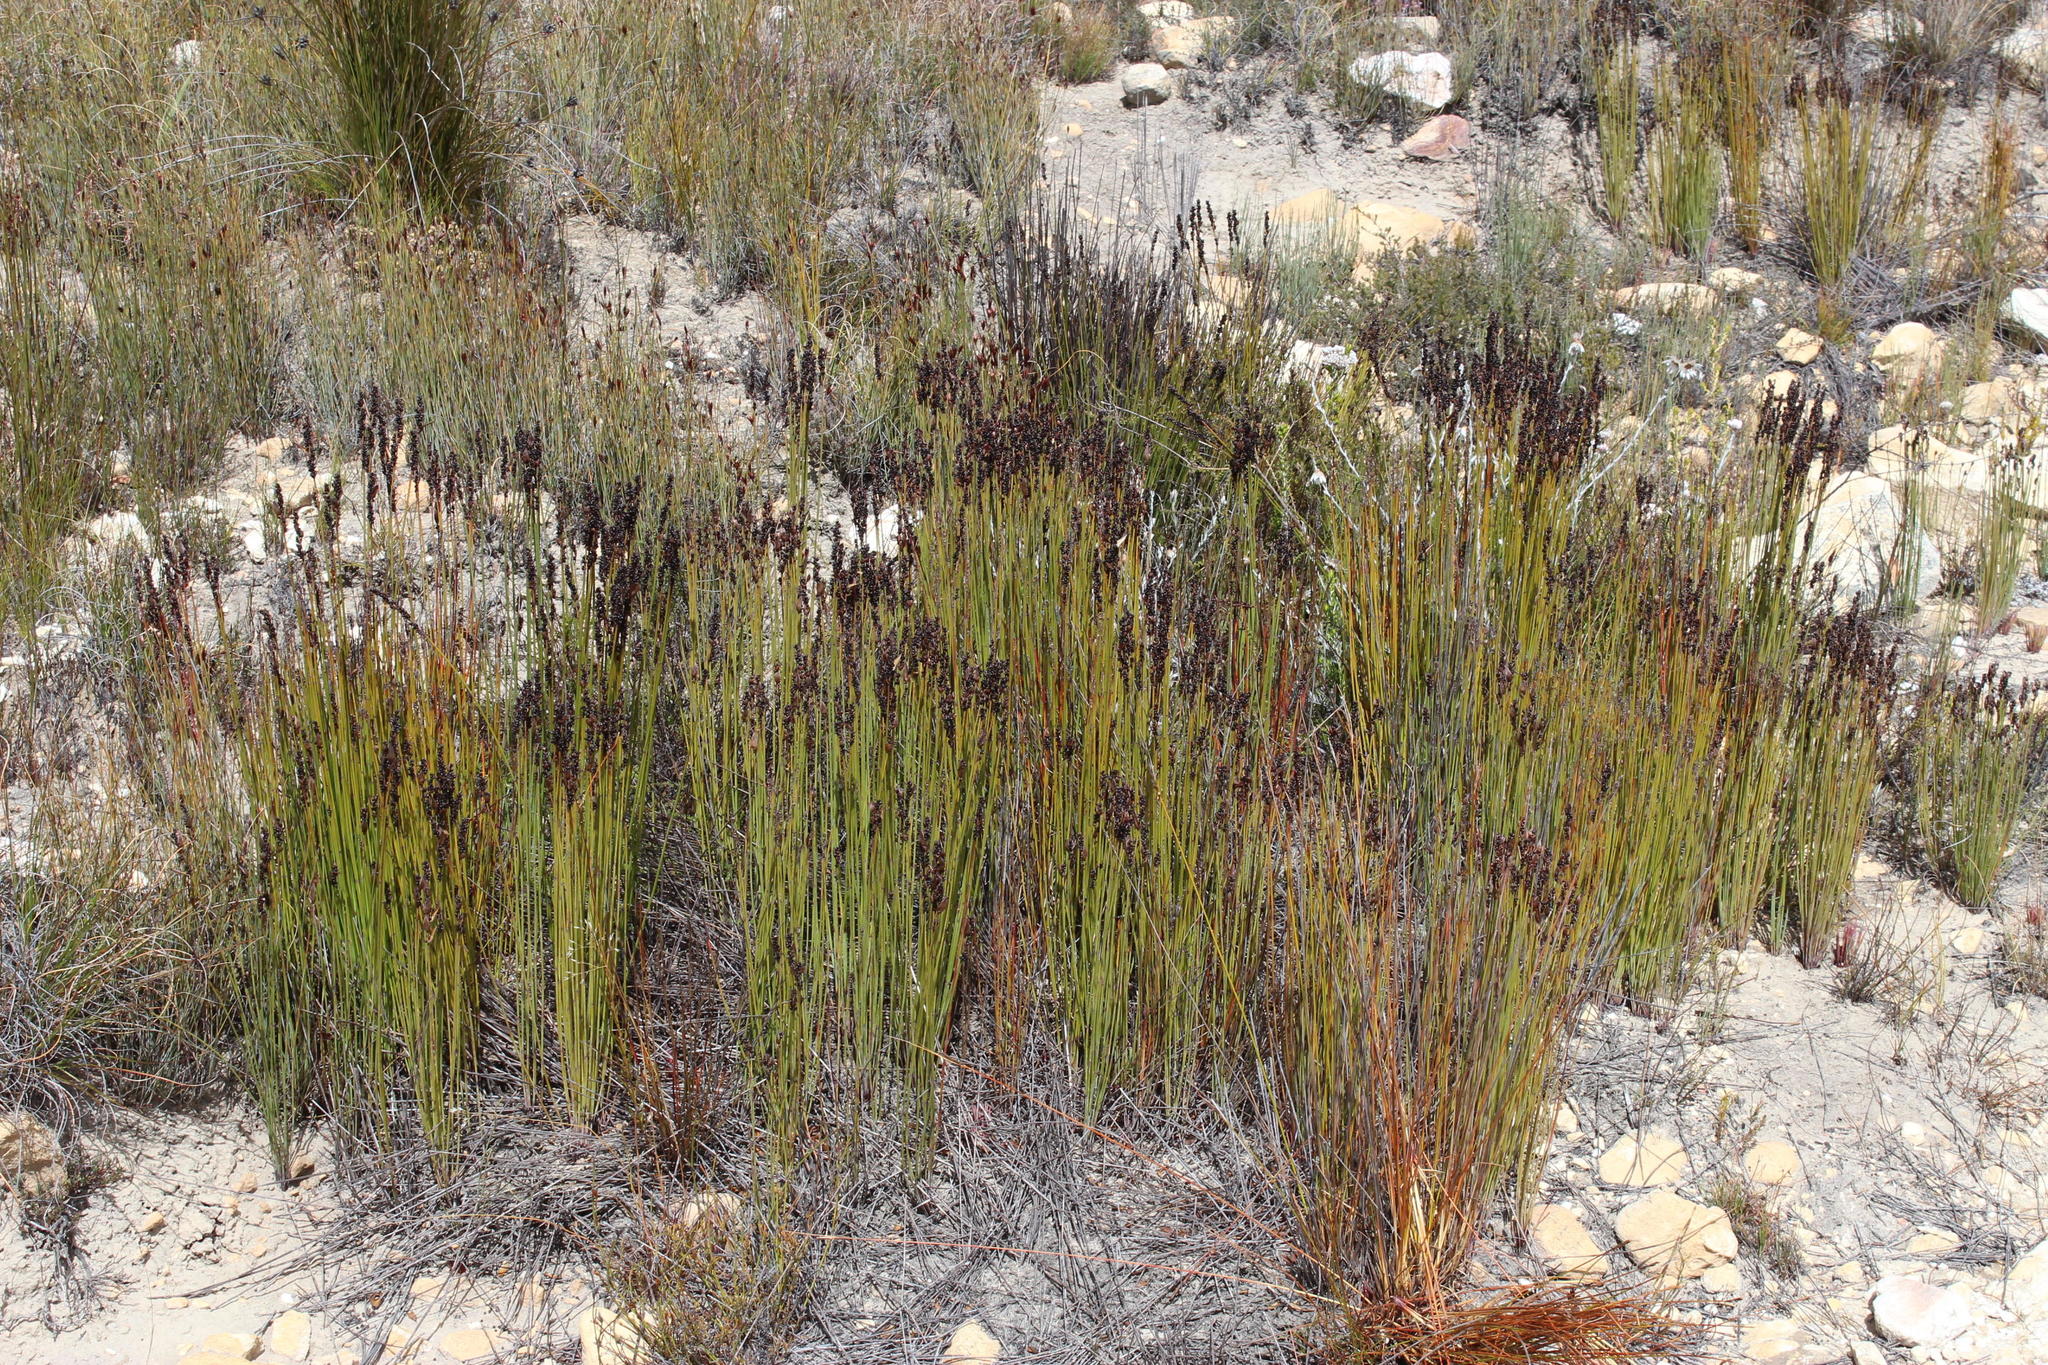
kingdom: Plantae
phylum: Tracheophyta
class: Liliopsida
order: Poales
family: Restionaceae
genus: Elegia
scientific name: Elegia galpinii
